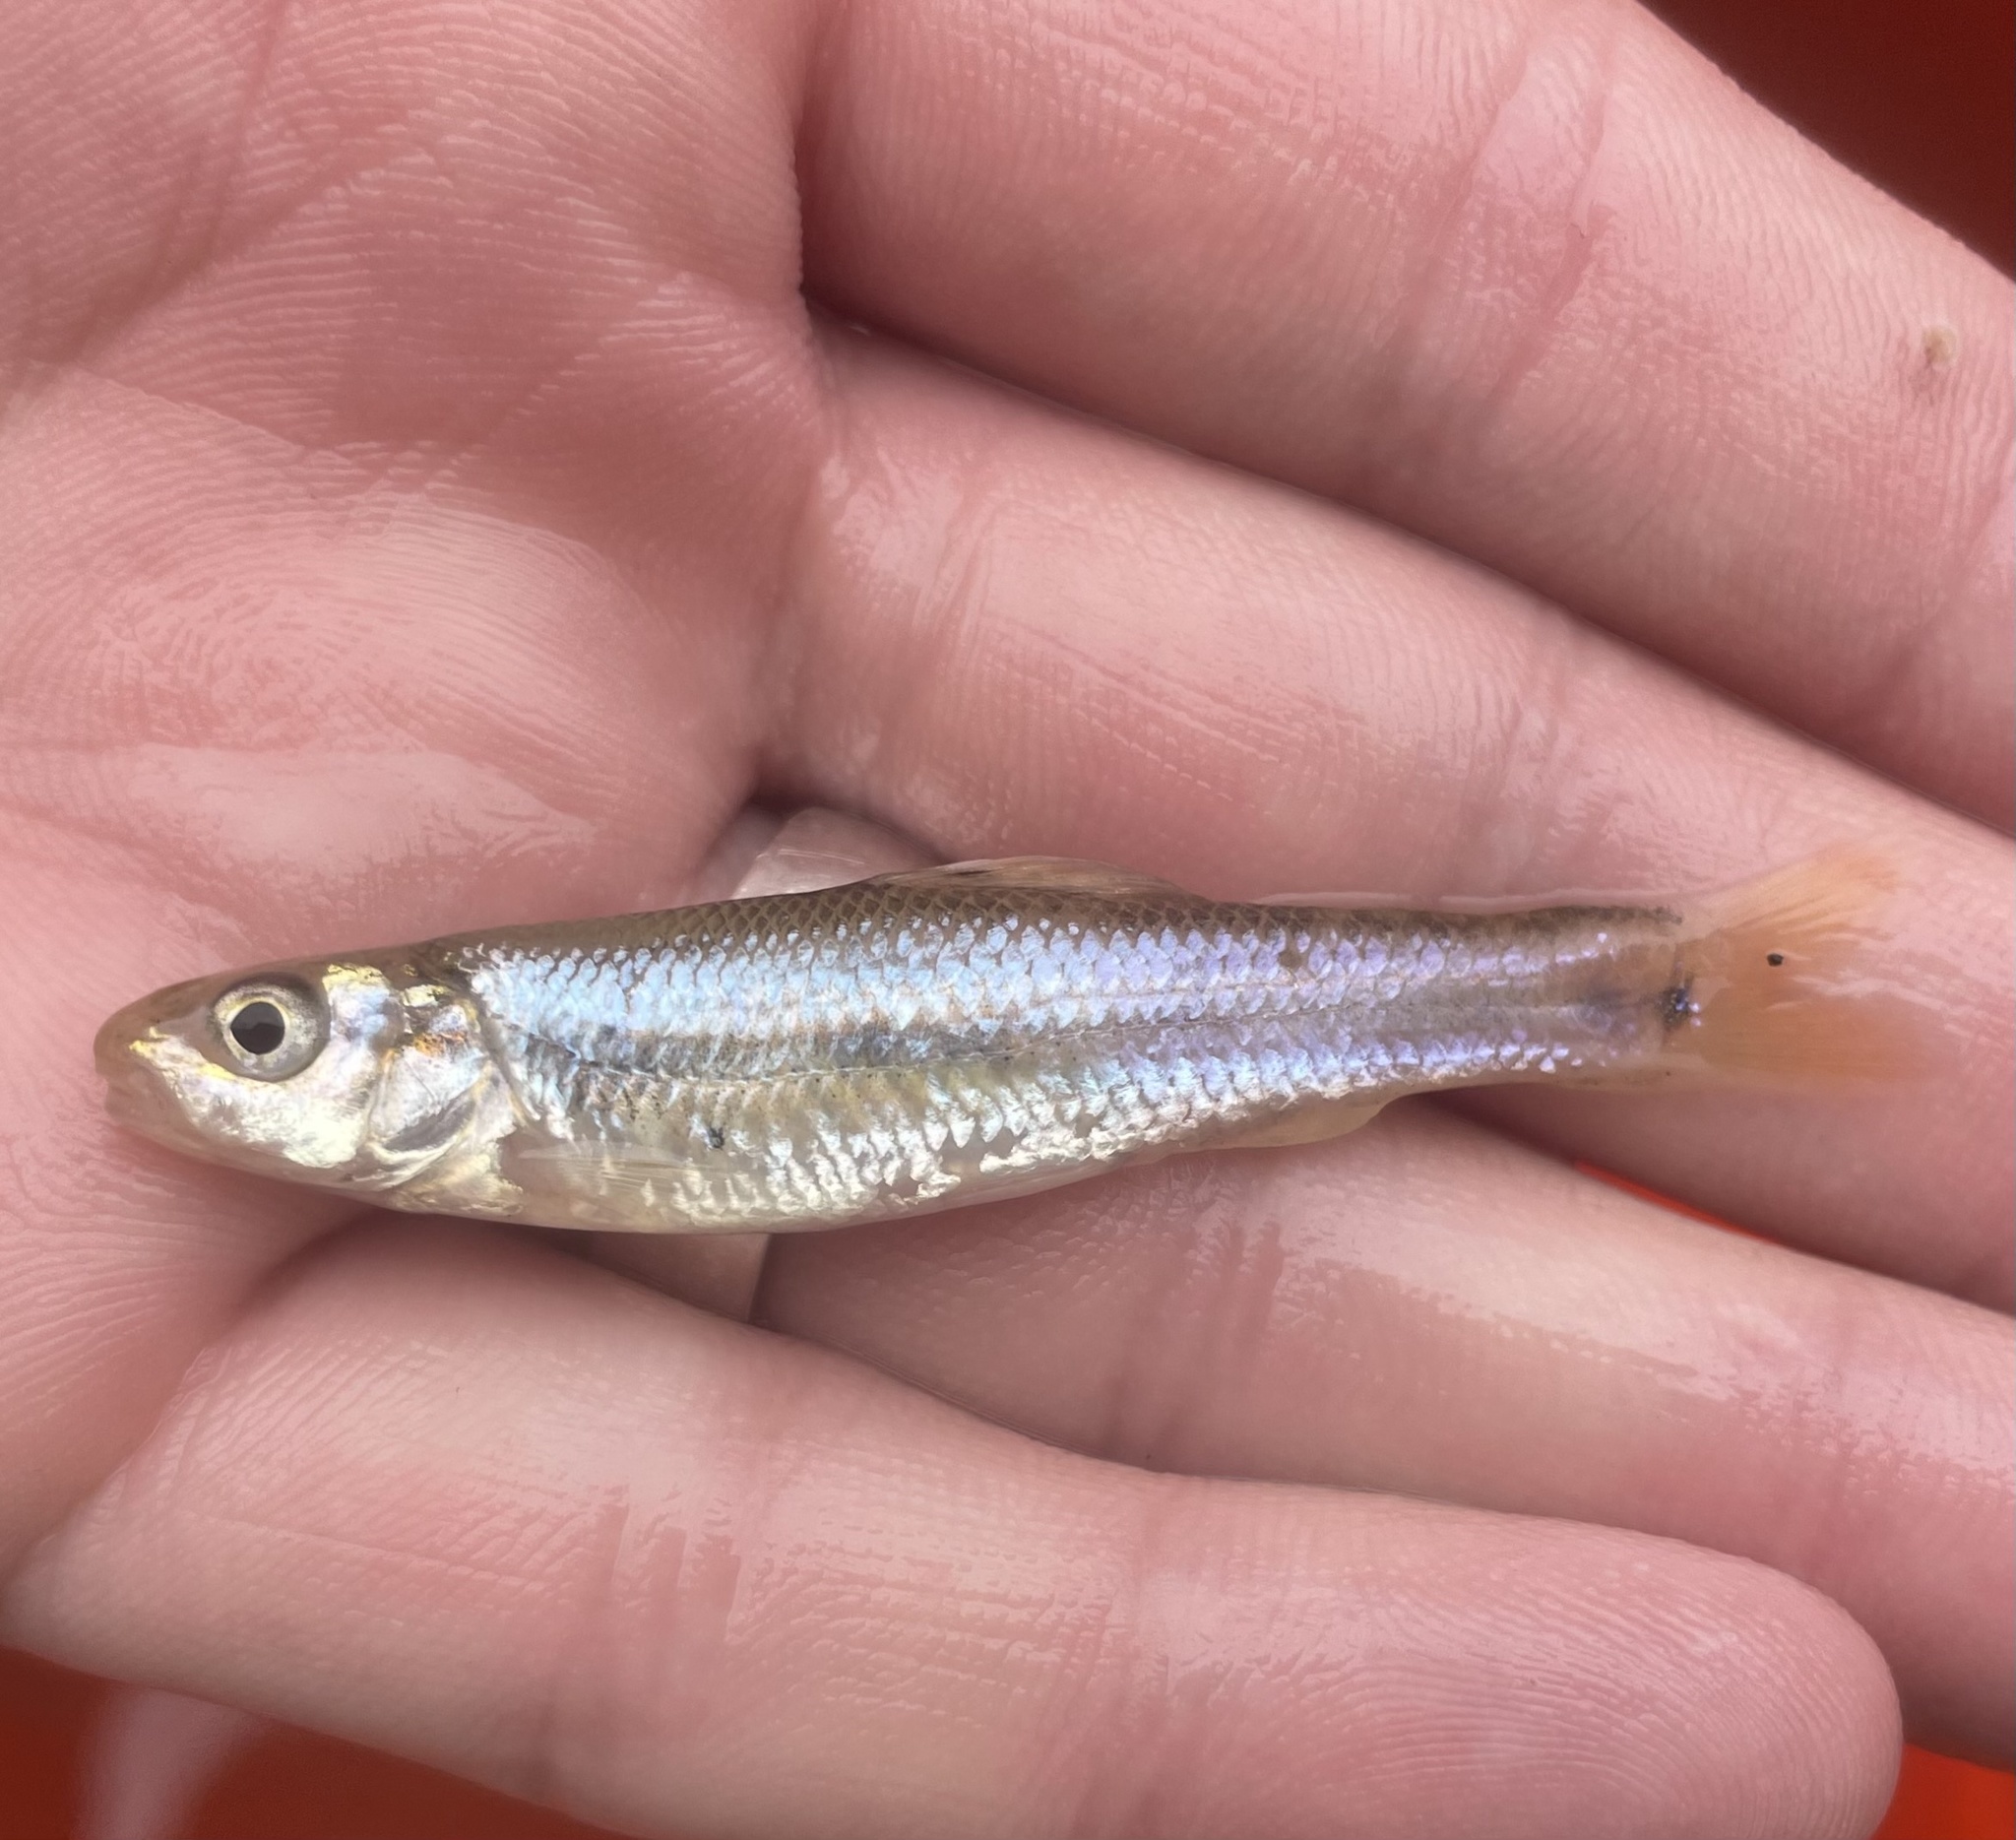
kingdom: Animalia
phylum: Chordata
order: Cypriniformes
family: Cyprinidae
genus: Pimephales
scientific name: Pimephales vigilax
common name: Bullhead minnow
